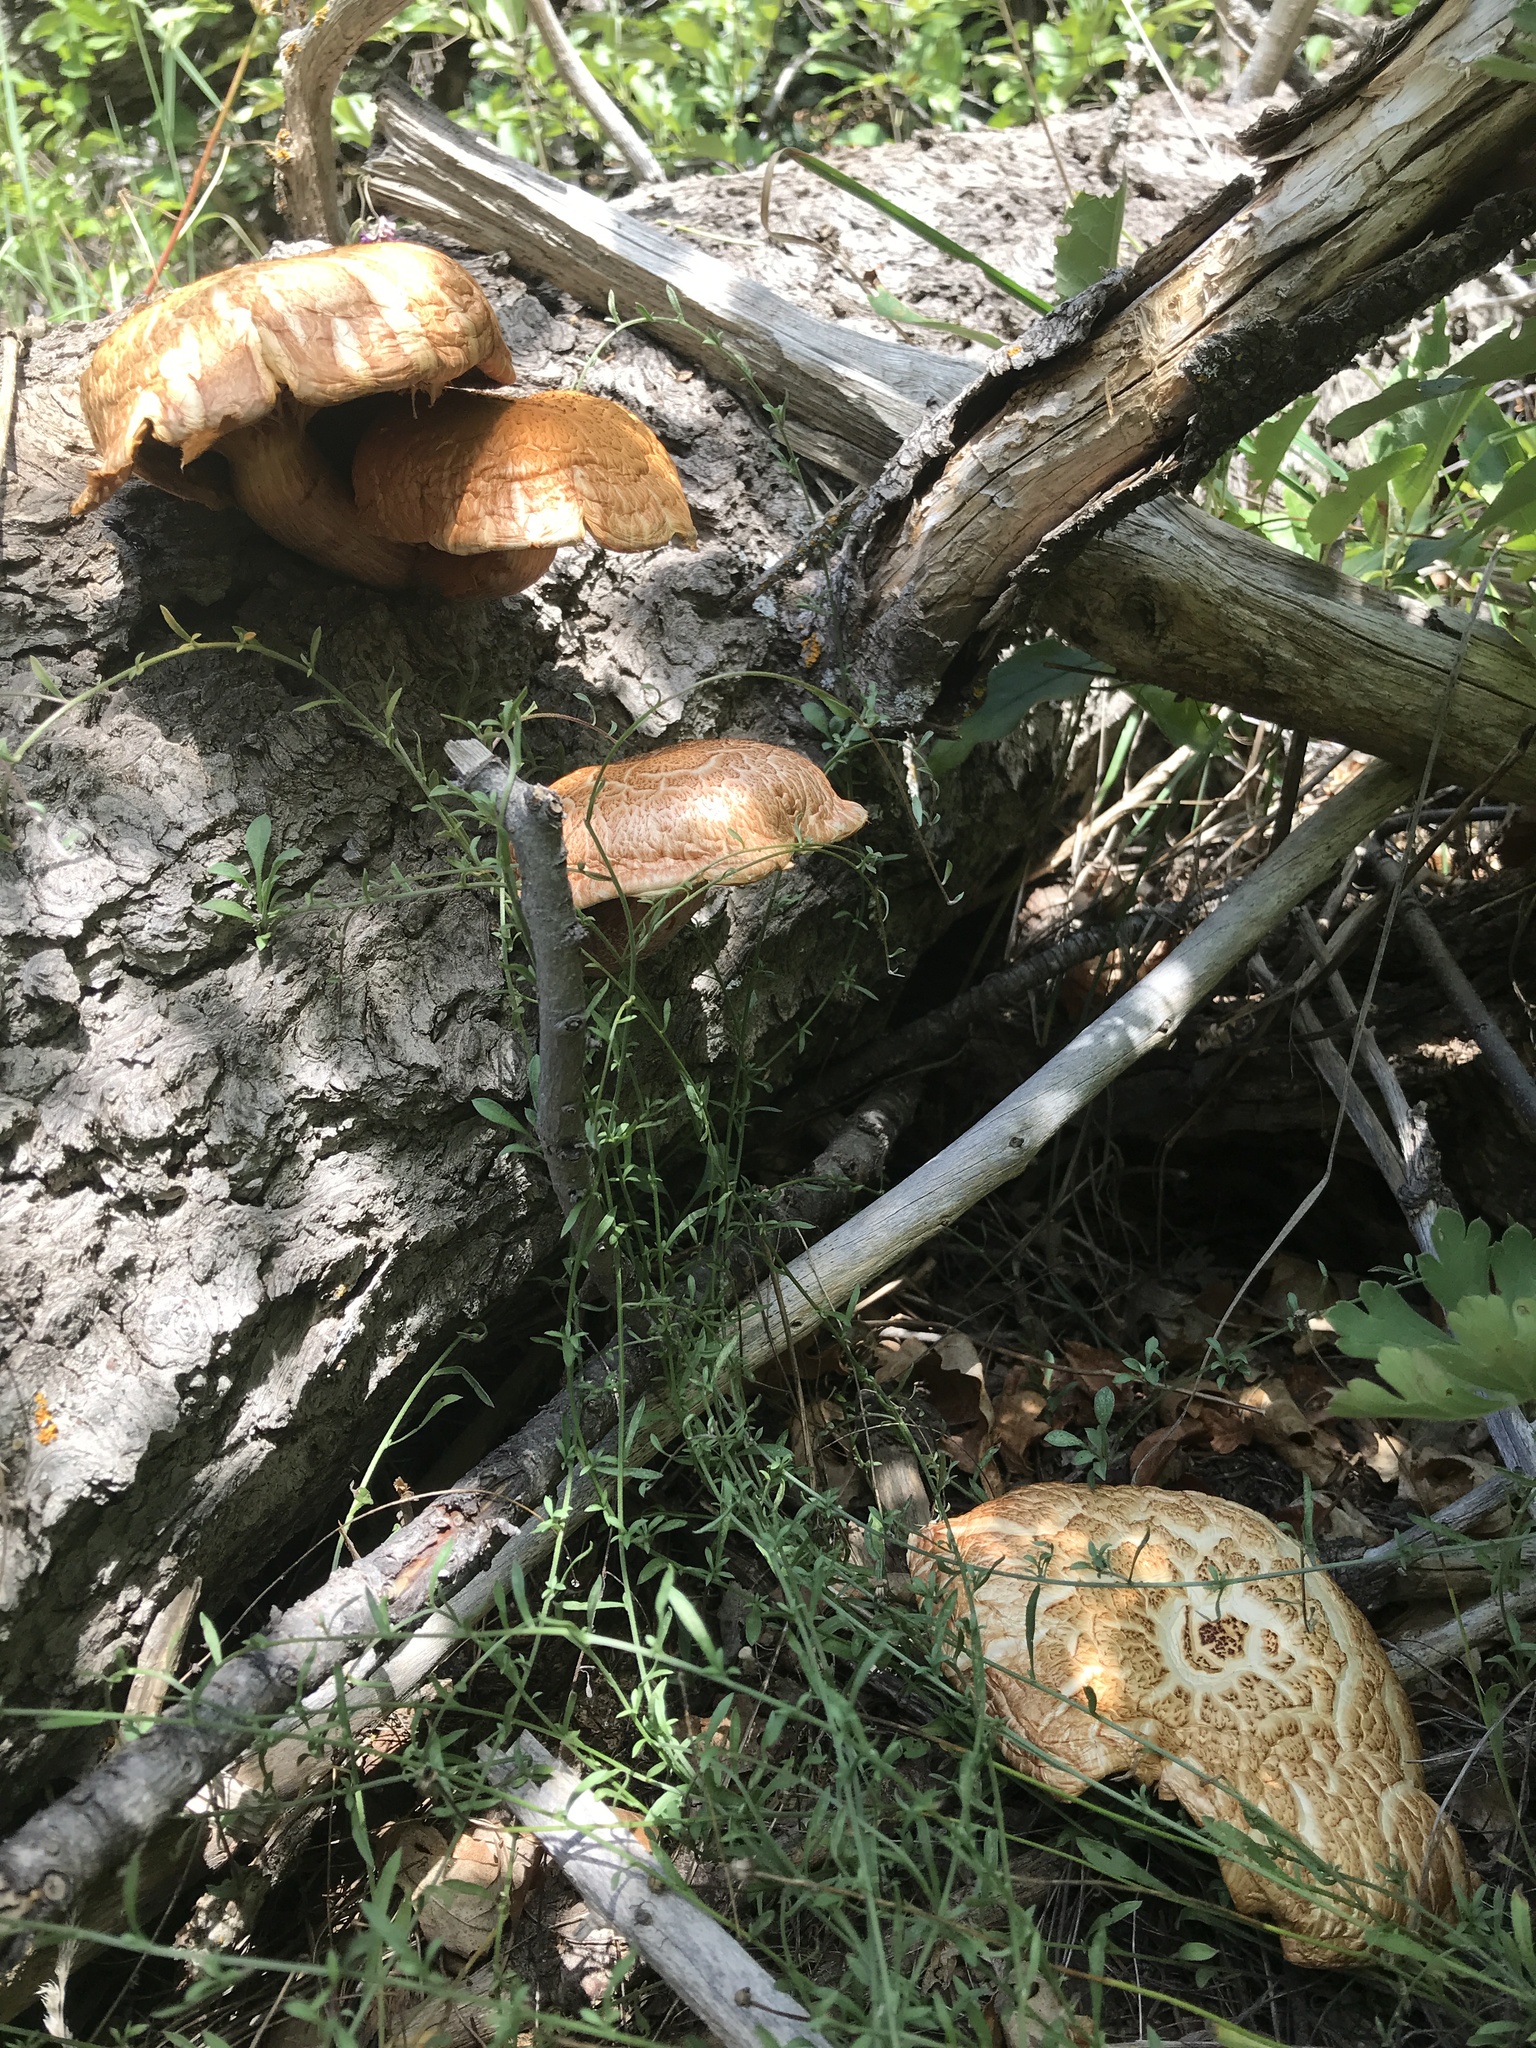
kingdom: Fungi
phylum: Basidiomycota
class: Agaricomycetes
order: Agaricales
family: Hymenogastraceae
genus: Gymnopilus
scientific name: Gymnopilus luteofolius
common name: Yellow-gilled gymnopilus
